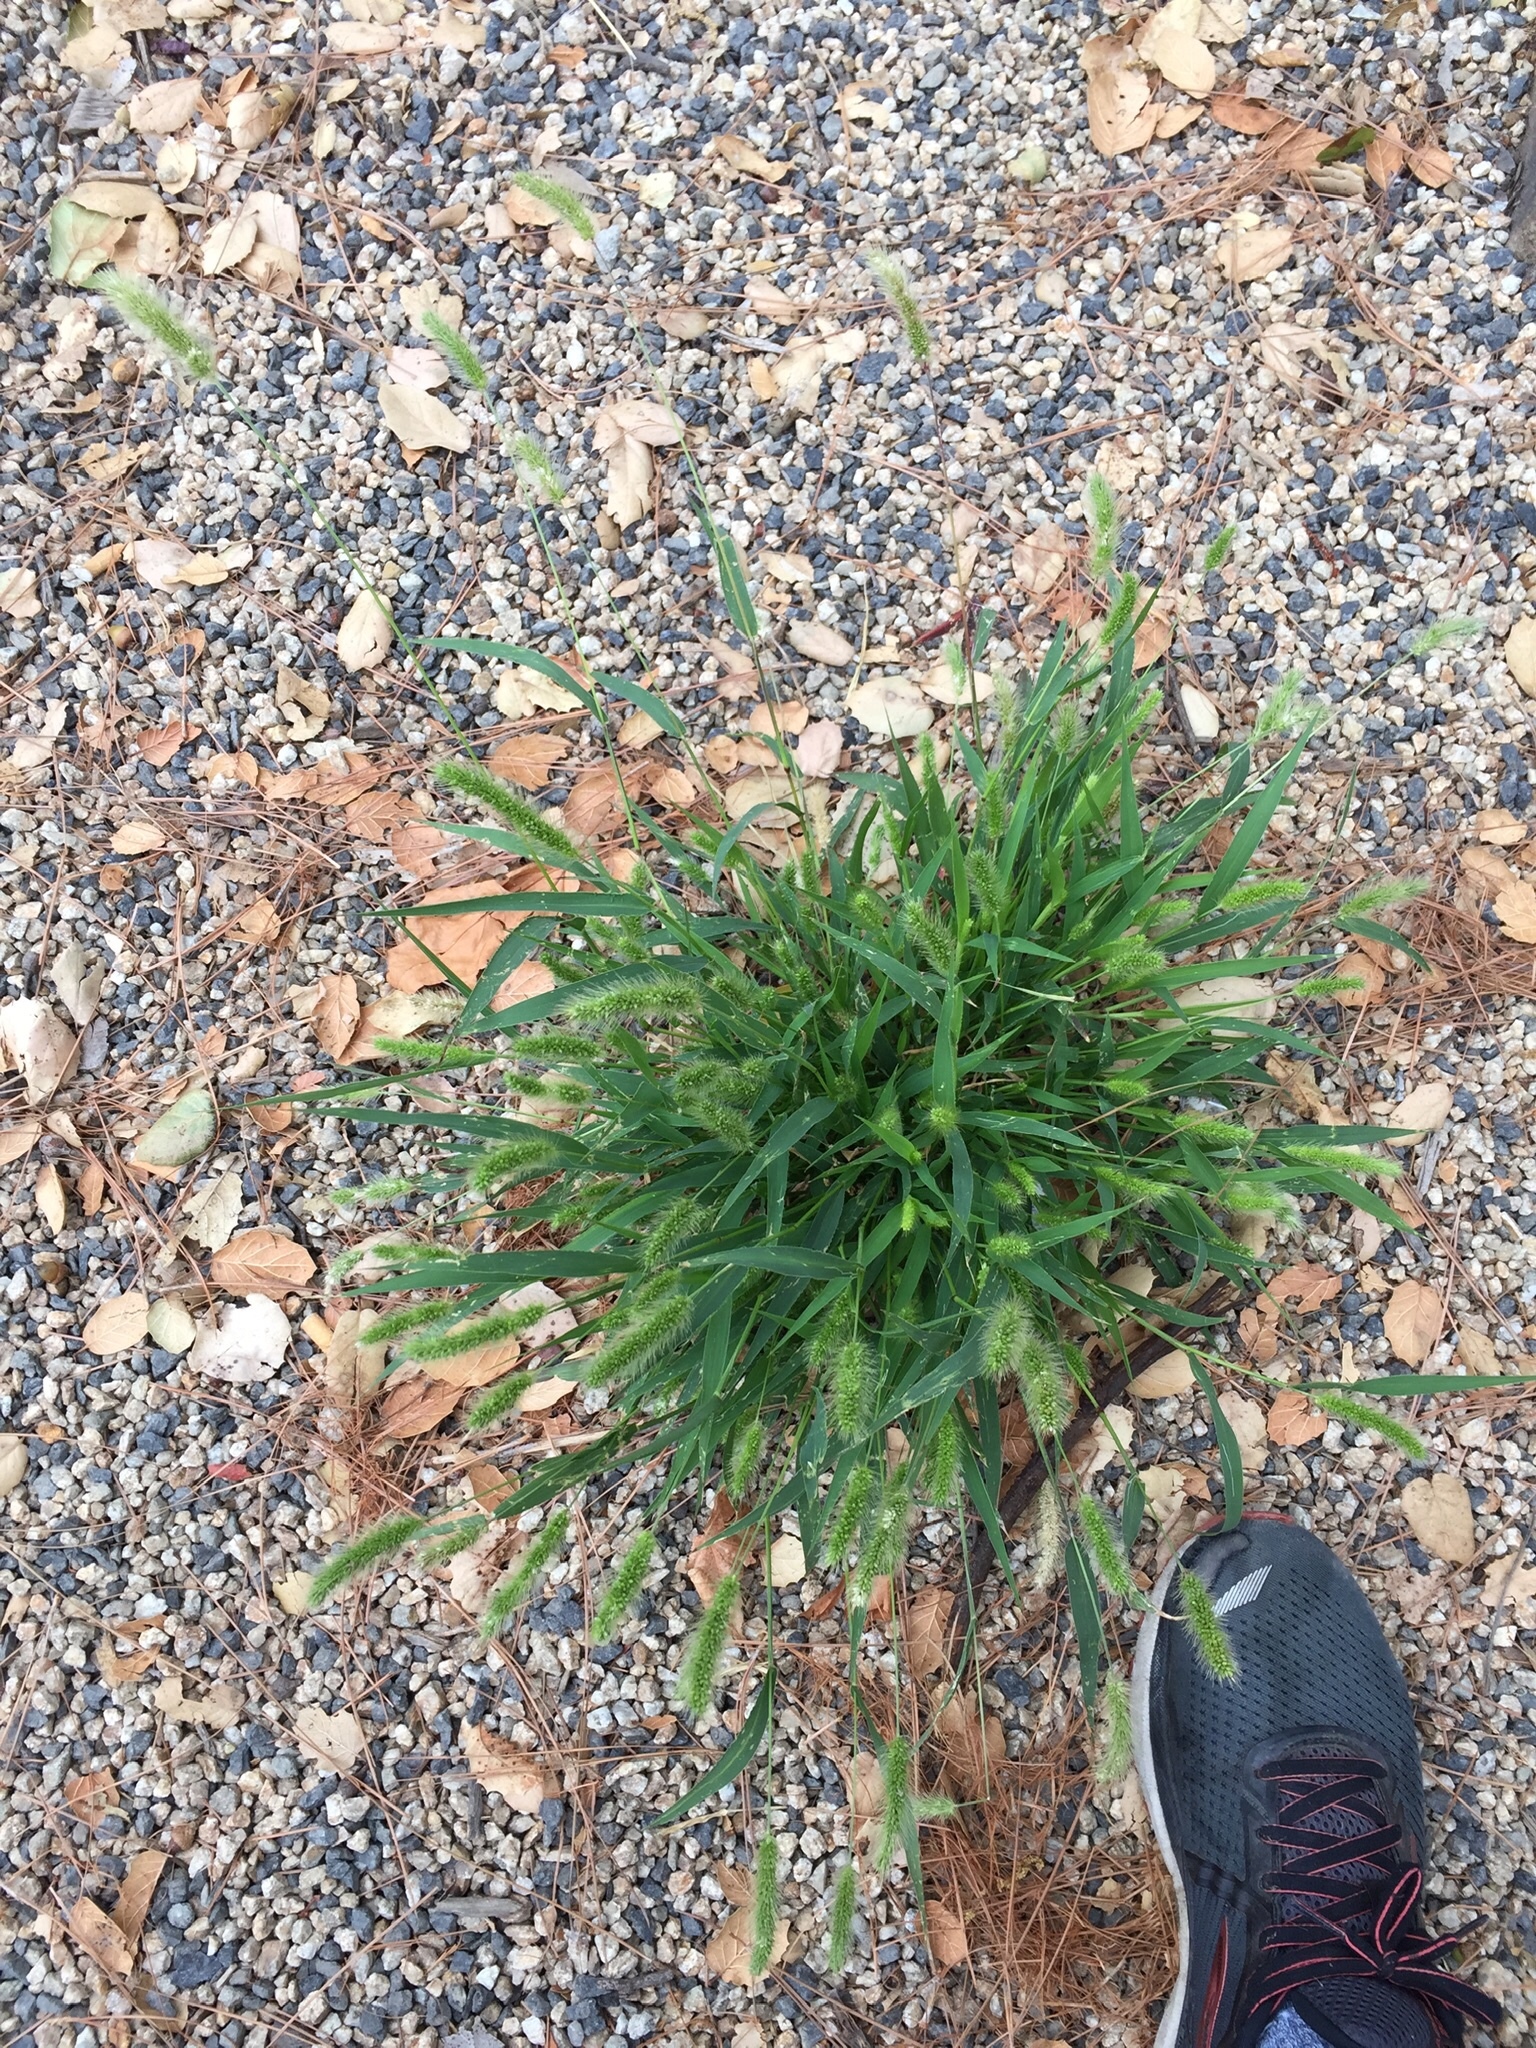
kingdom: Plantae
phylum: Tracheophyta
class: Liliopsida
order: Poales
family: Poaceae
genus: Setaria
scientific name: Setaria viridis
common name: Green bristlegrass
